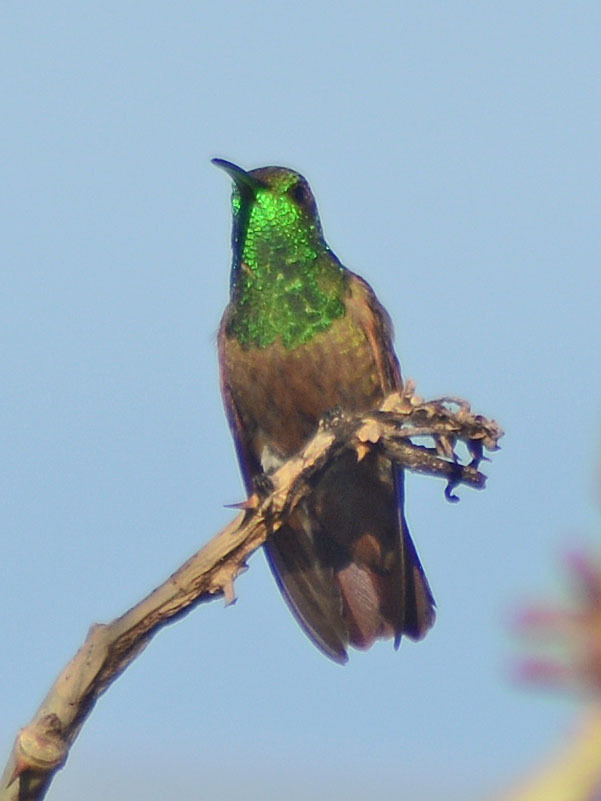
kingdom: Animalia
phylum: Chordata
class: Aves
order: Apodiformes
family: Trochilidae
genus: Saucerottia
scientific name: Saucerottia beryllina
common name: Berylline hummingbird
